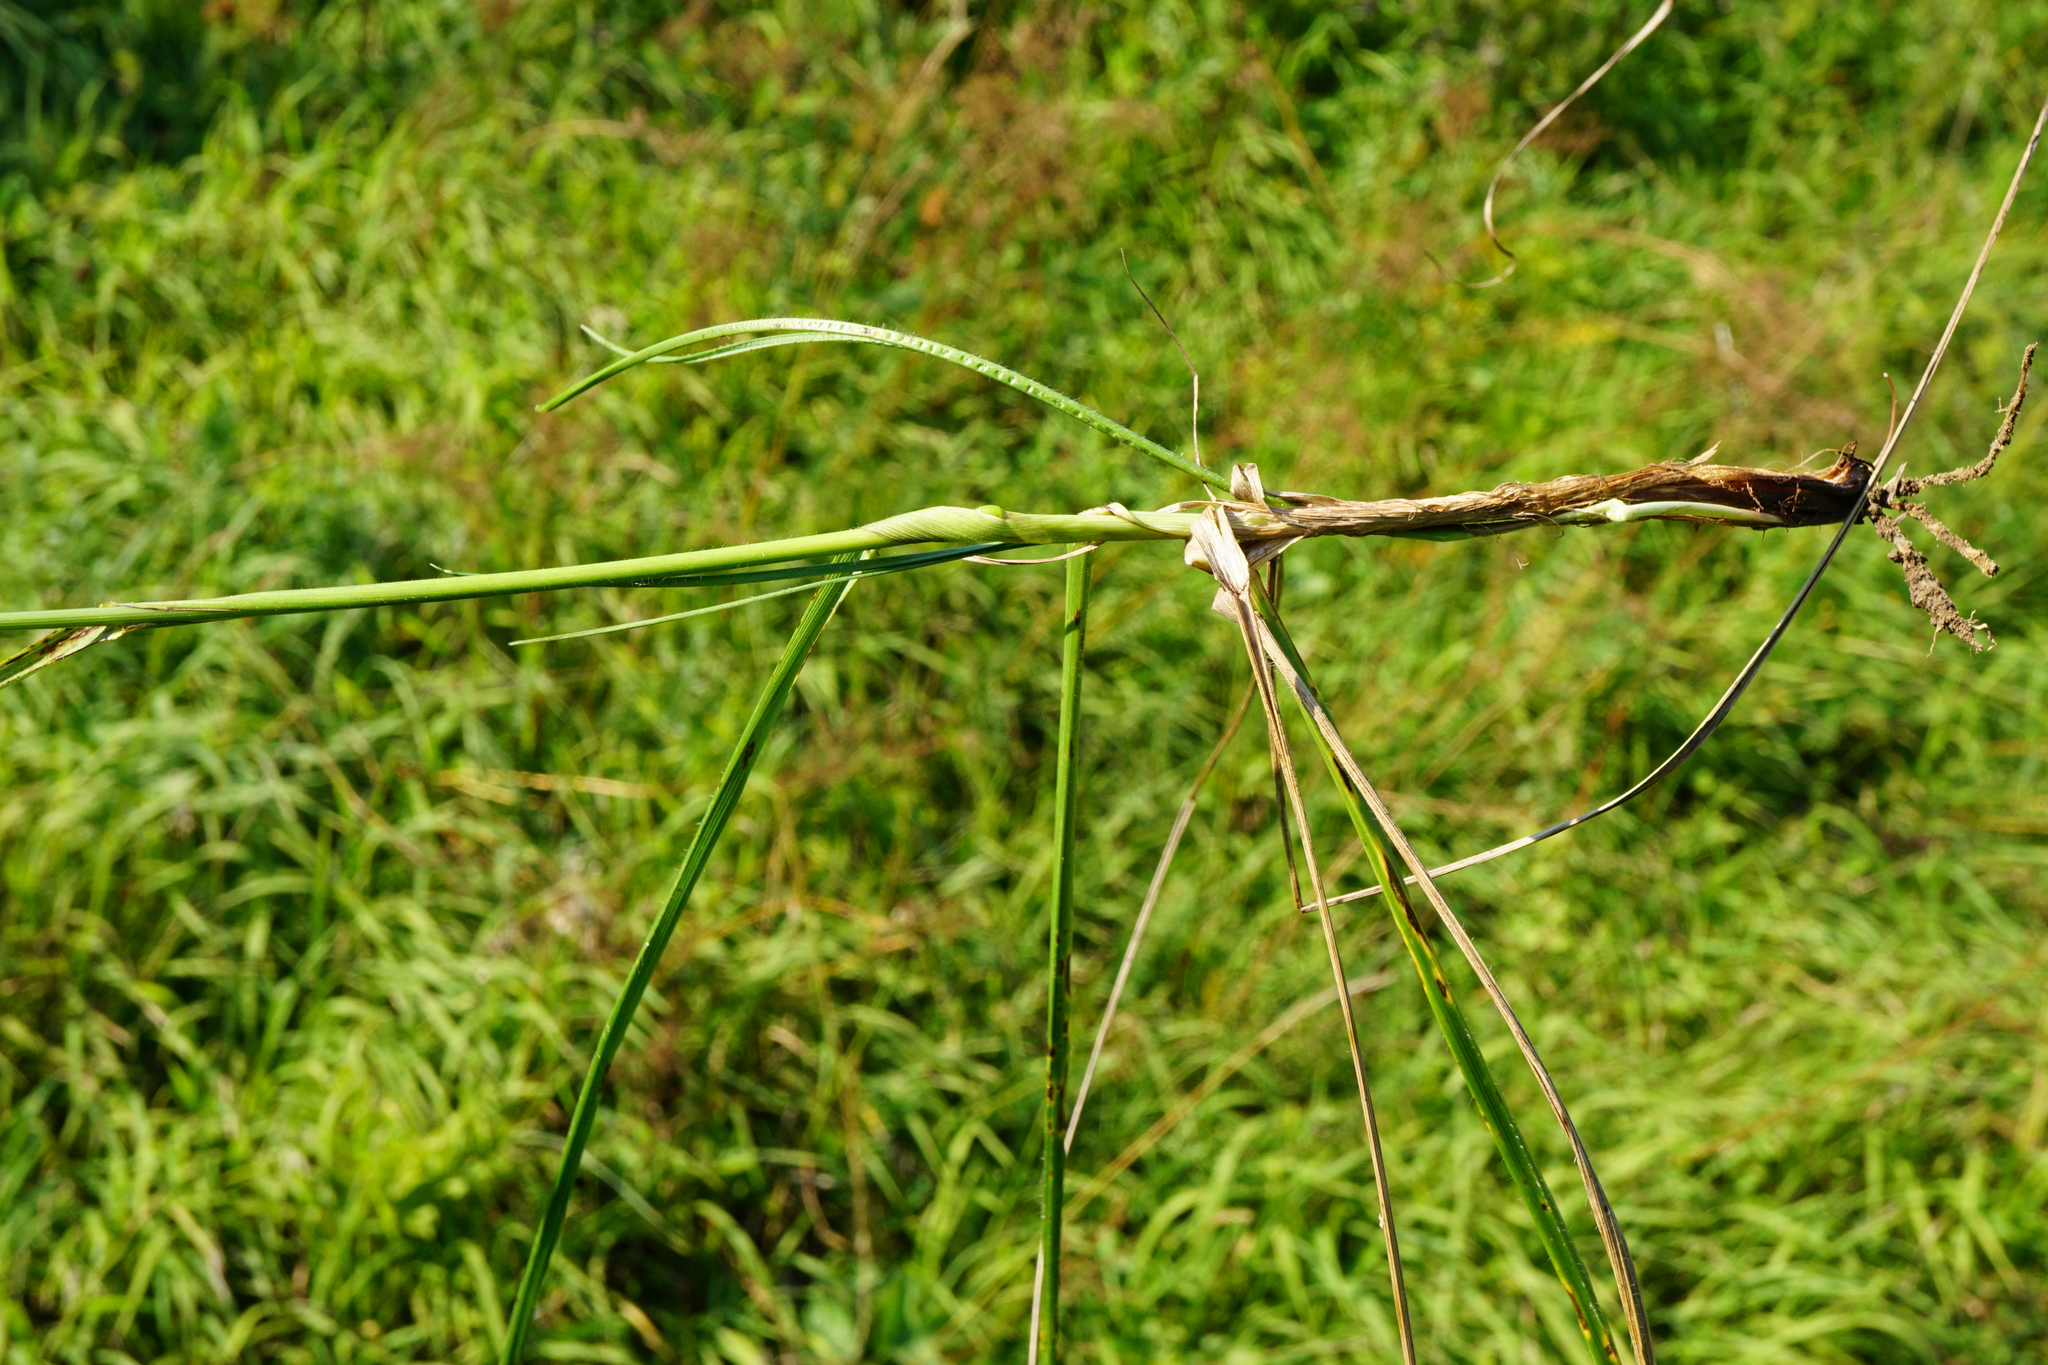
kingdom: Plantae
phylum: Tracheophyta
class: Liliopsida
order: Poales
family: Poaceae
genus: Bromus
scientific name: Bromus erectus
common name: Erect brome
